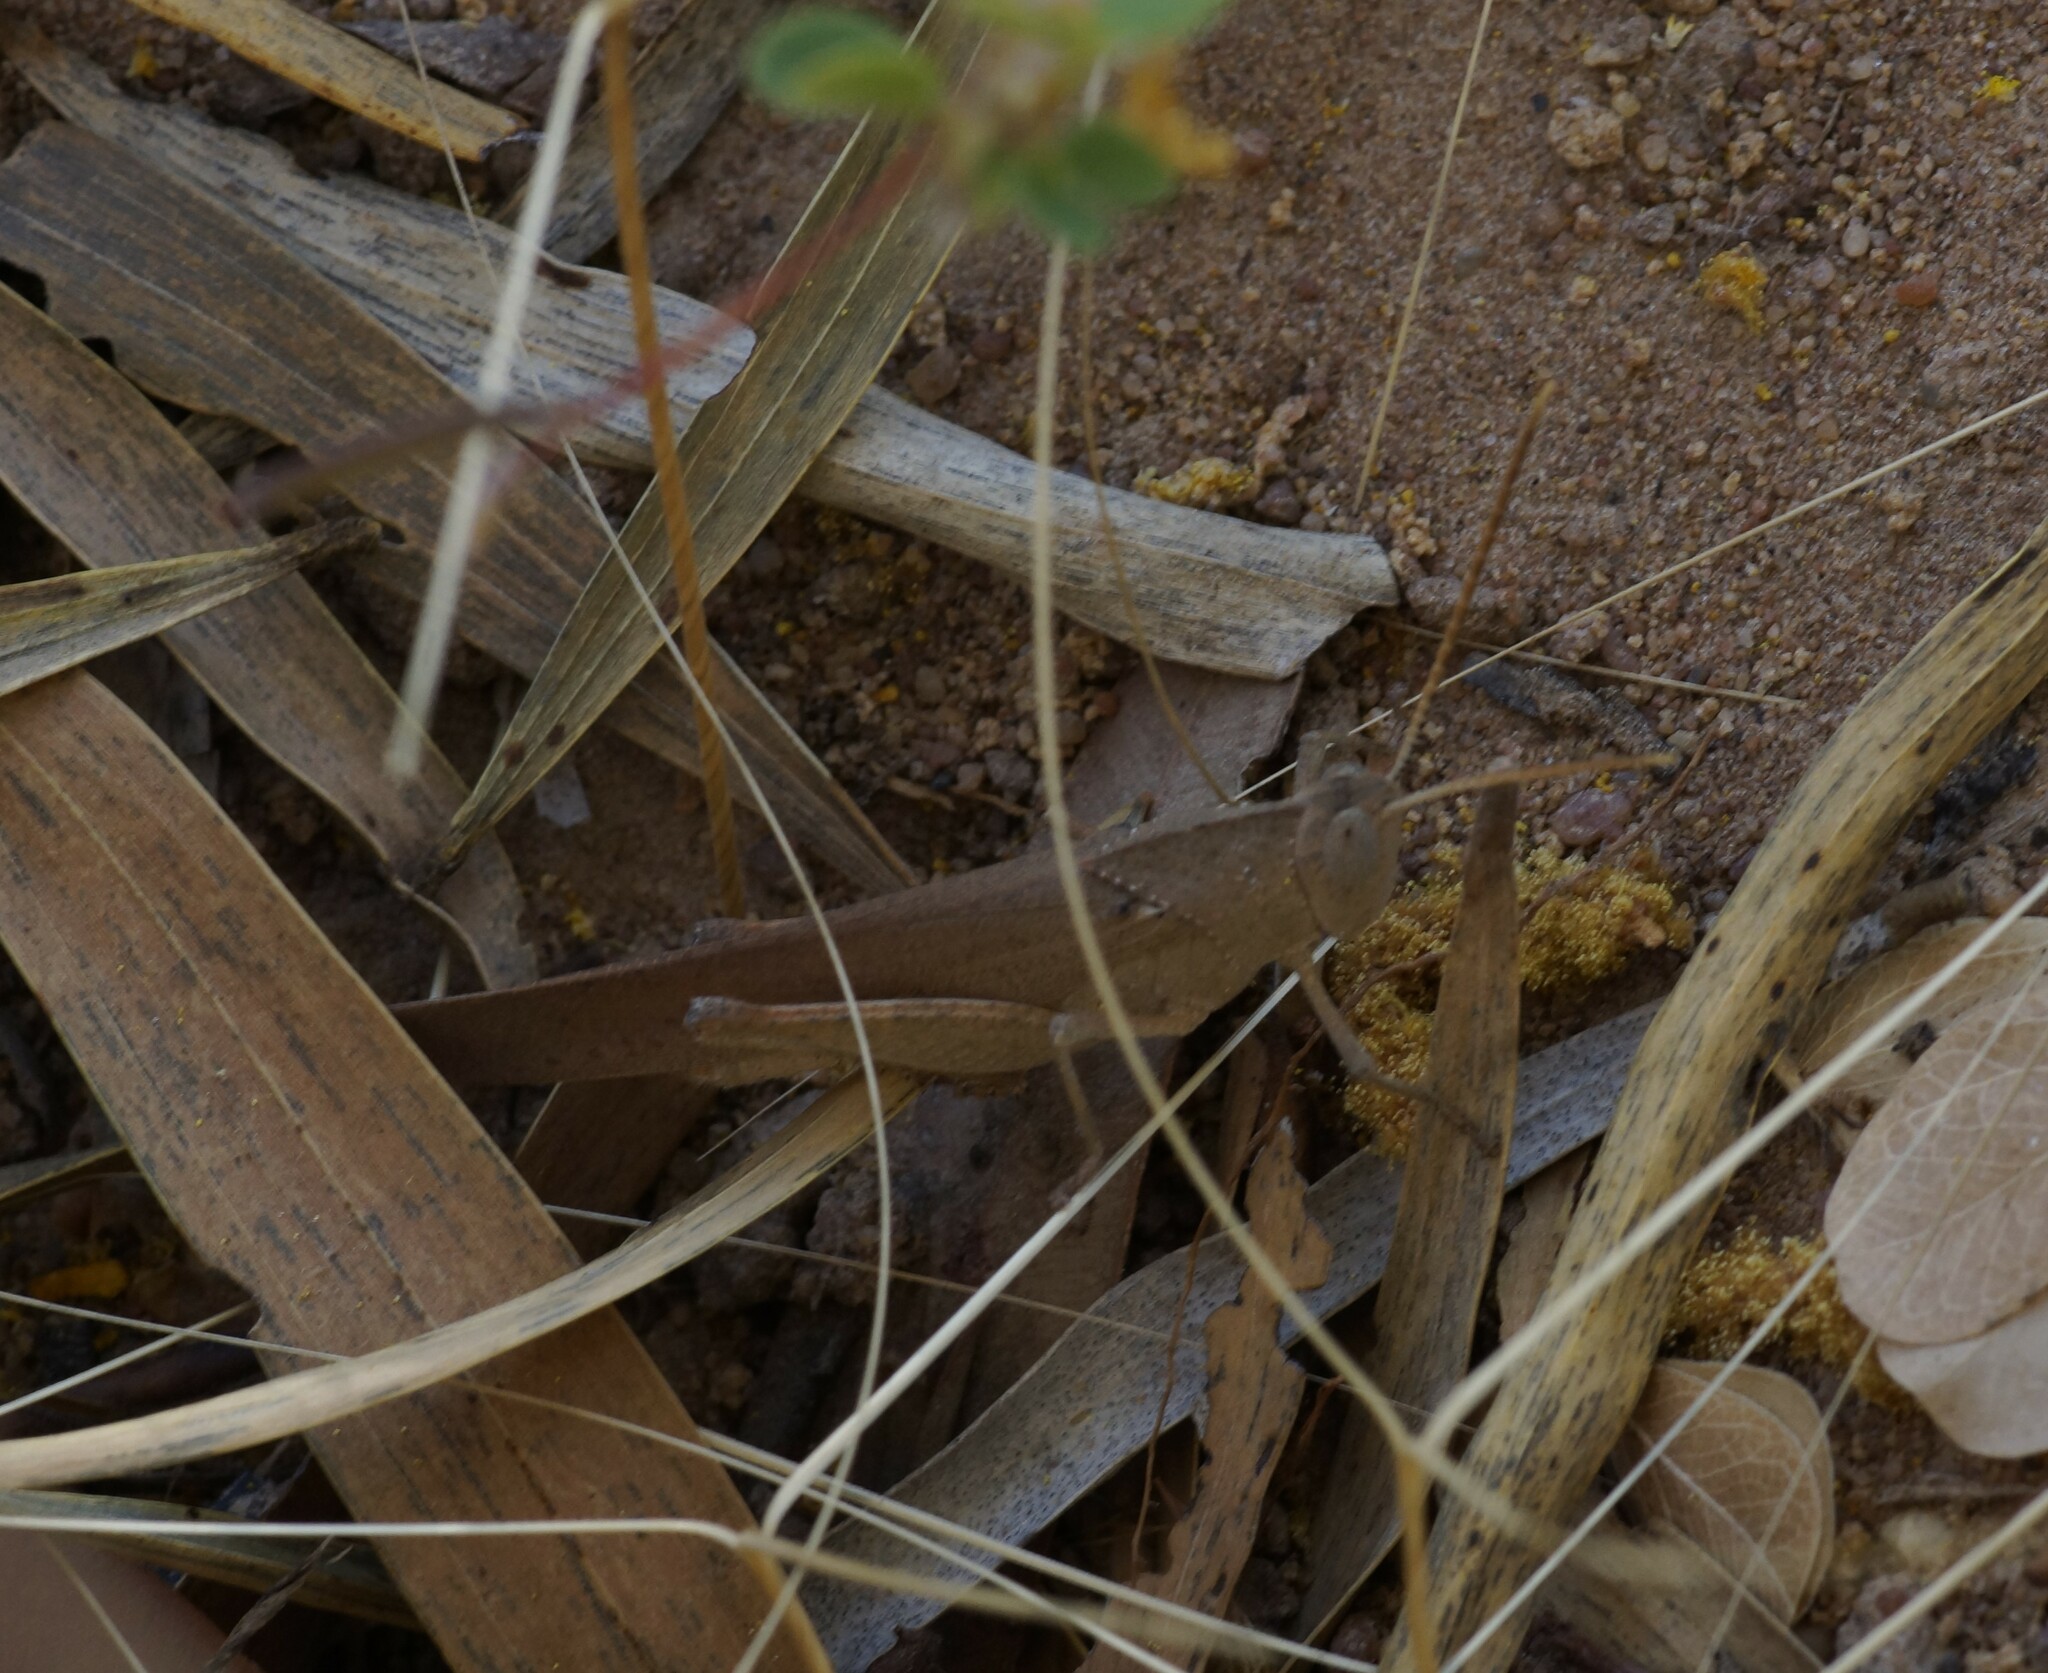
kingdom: Animalia
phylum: Arthropoda
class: Insecta
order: Orthoptera
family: Acrididae
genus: Goniaea
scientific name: Goniaea furcifera
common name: Tropical gumleaf grasshopper
